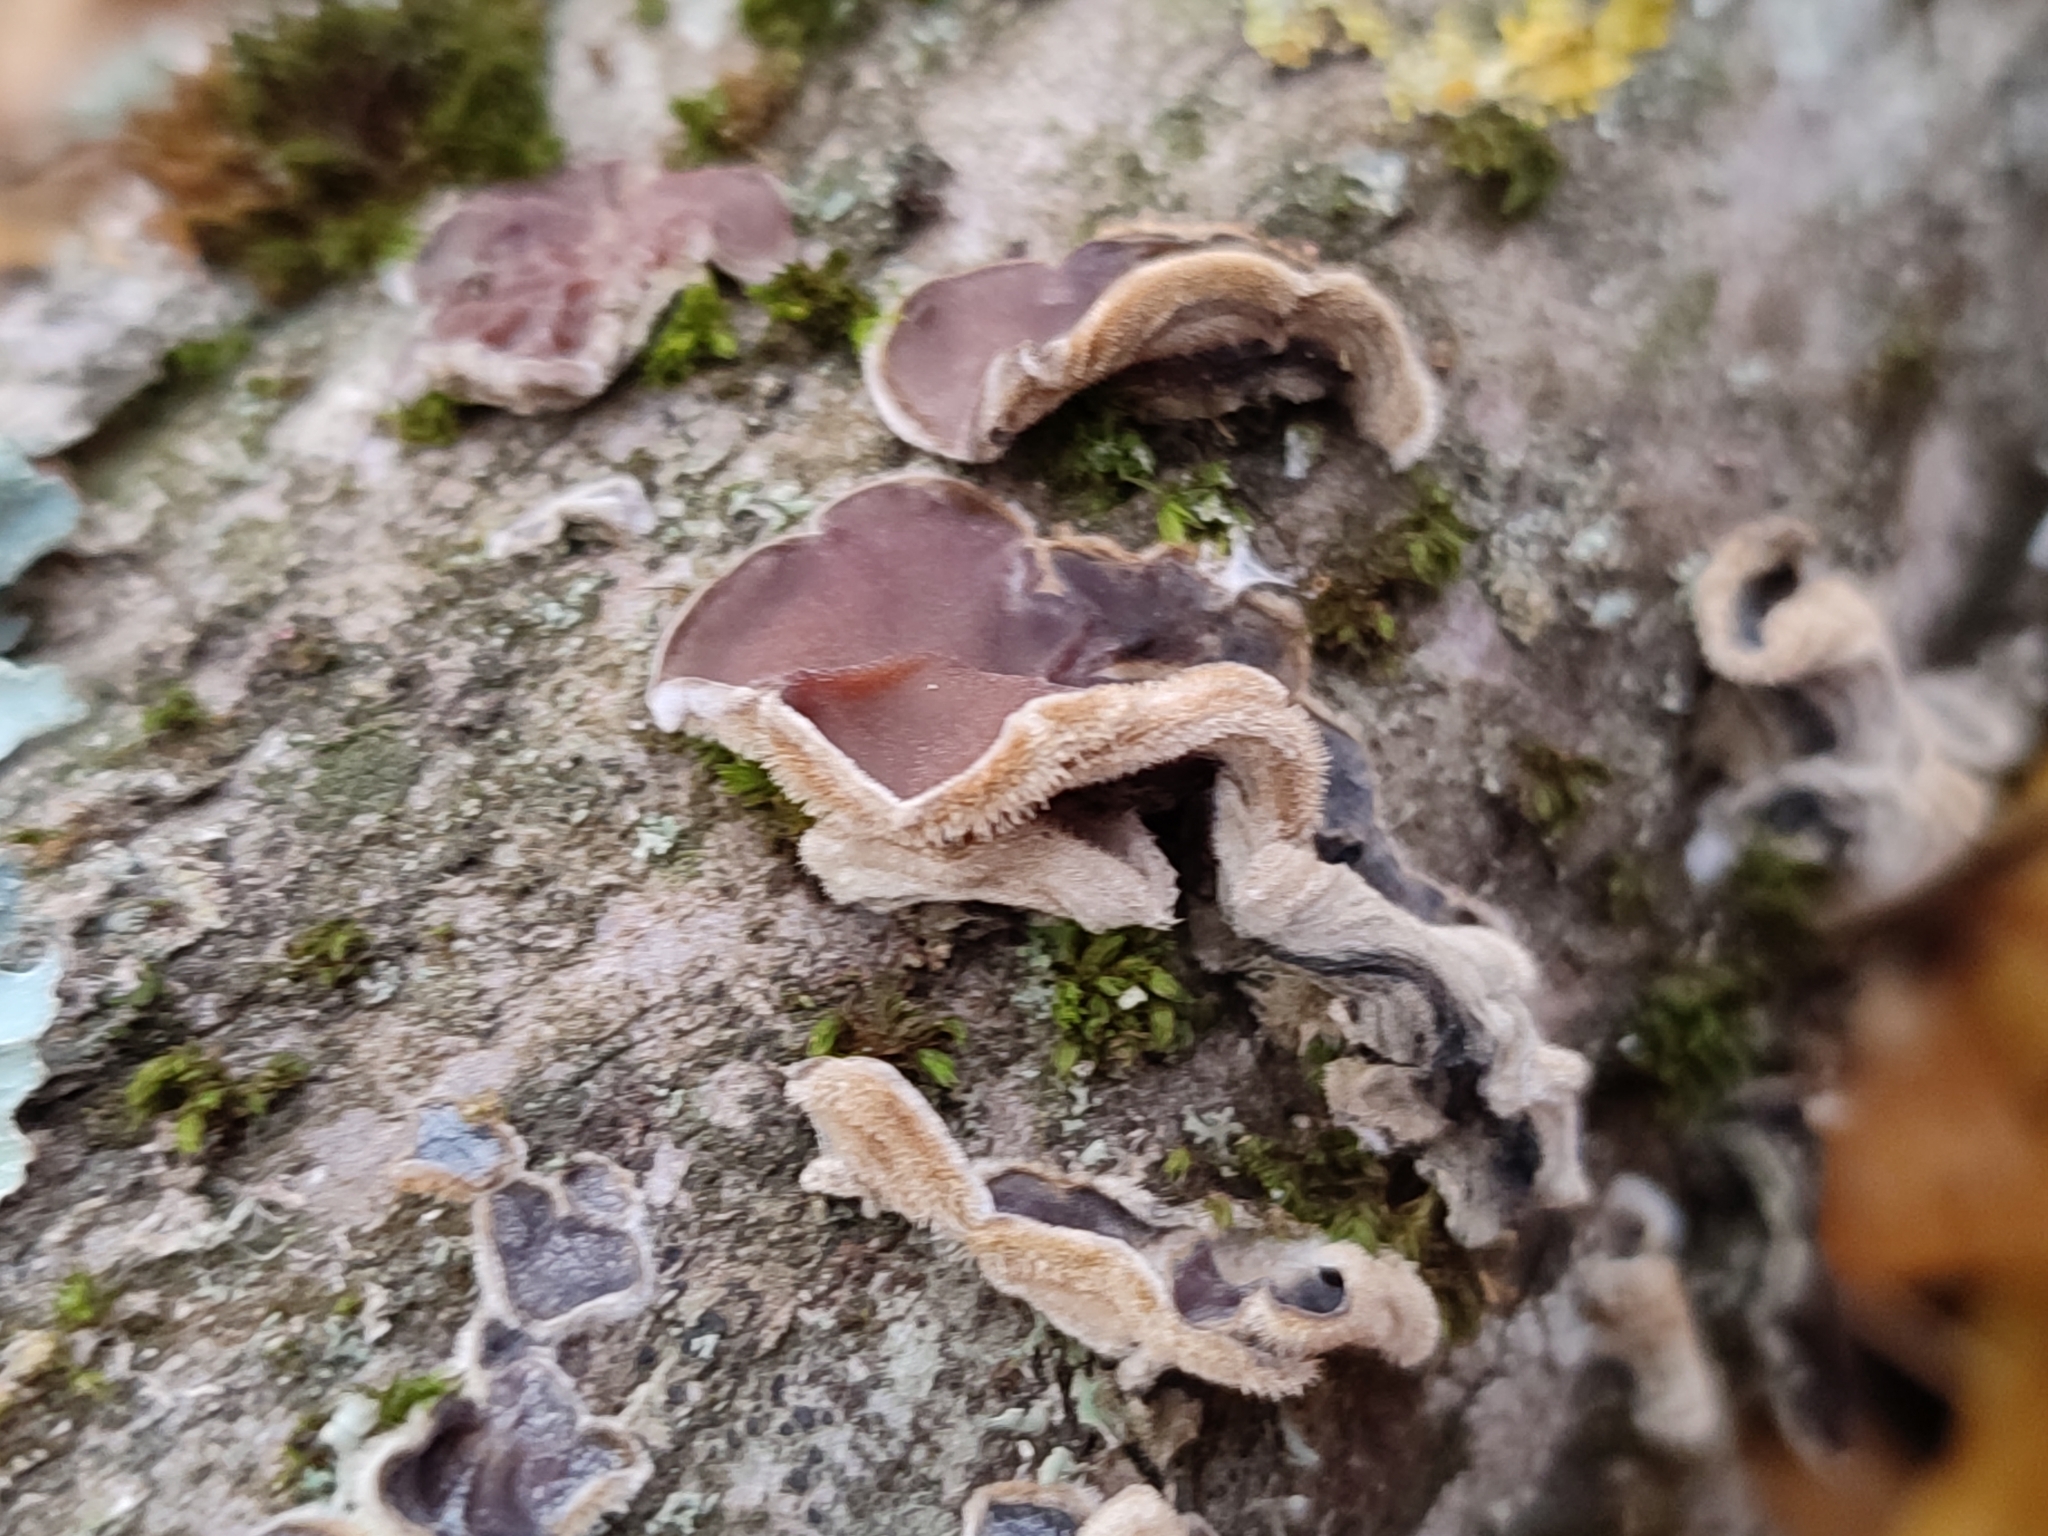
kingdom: Fungi
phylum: Basidiomycota
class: Agaricomycetes
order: Auriculariales
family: Auriculariaceae
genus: Auricularia
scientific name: Auricularia mesenterica
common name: Tripe fungus
